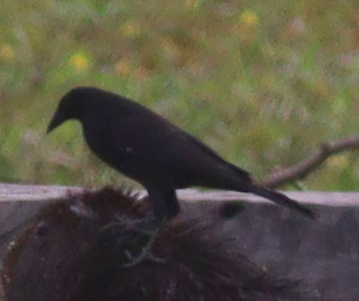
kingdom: Animalia
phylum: Chordata
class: Aves
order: Passeriformes
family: Icteridae
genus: Molothrus
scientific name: Molothrus oryzivorus
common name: Giant cowbird
